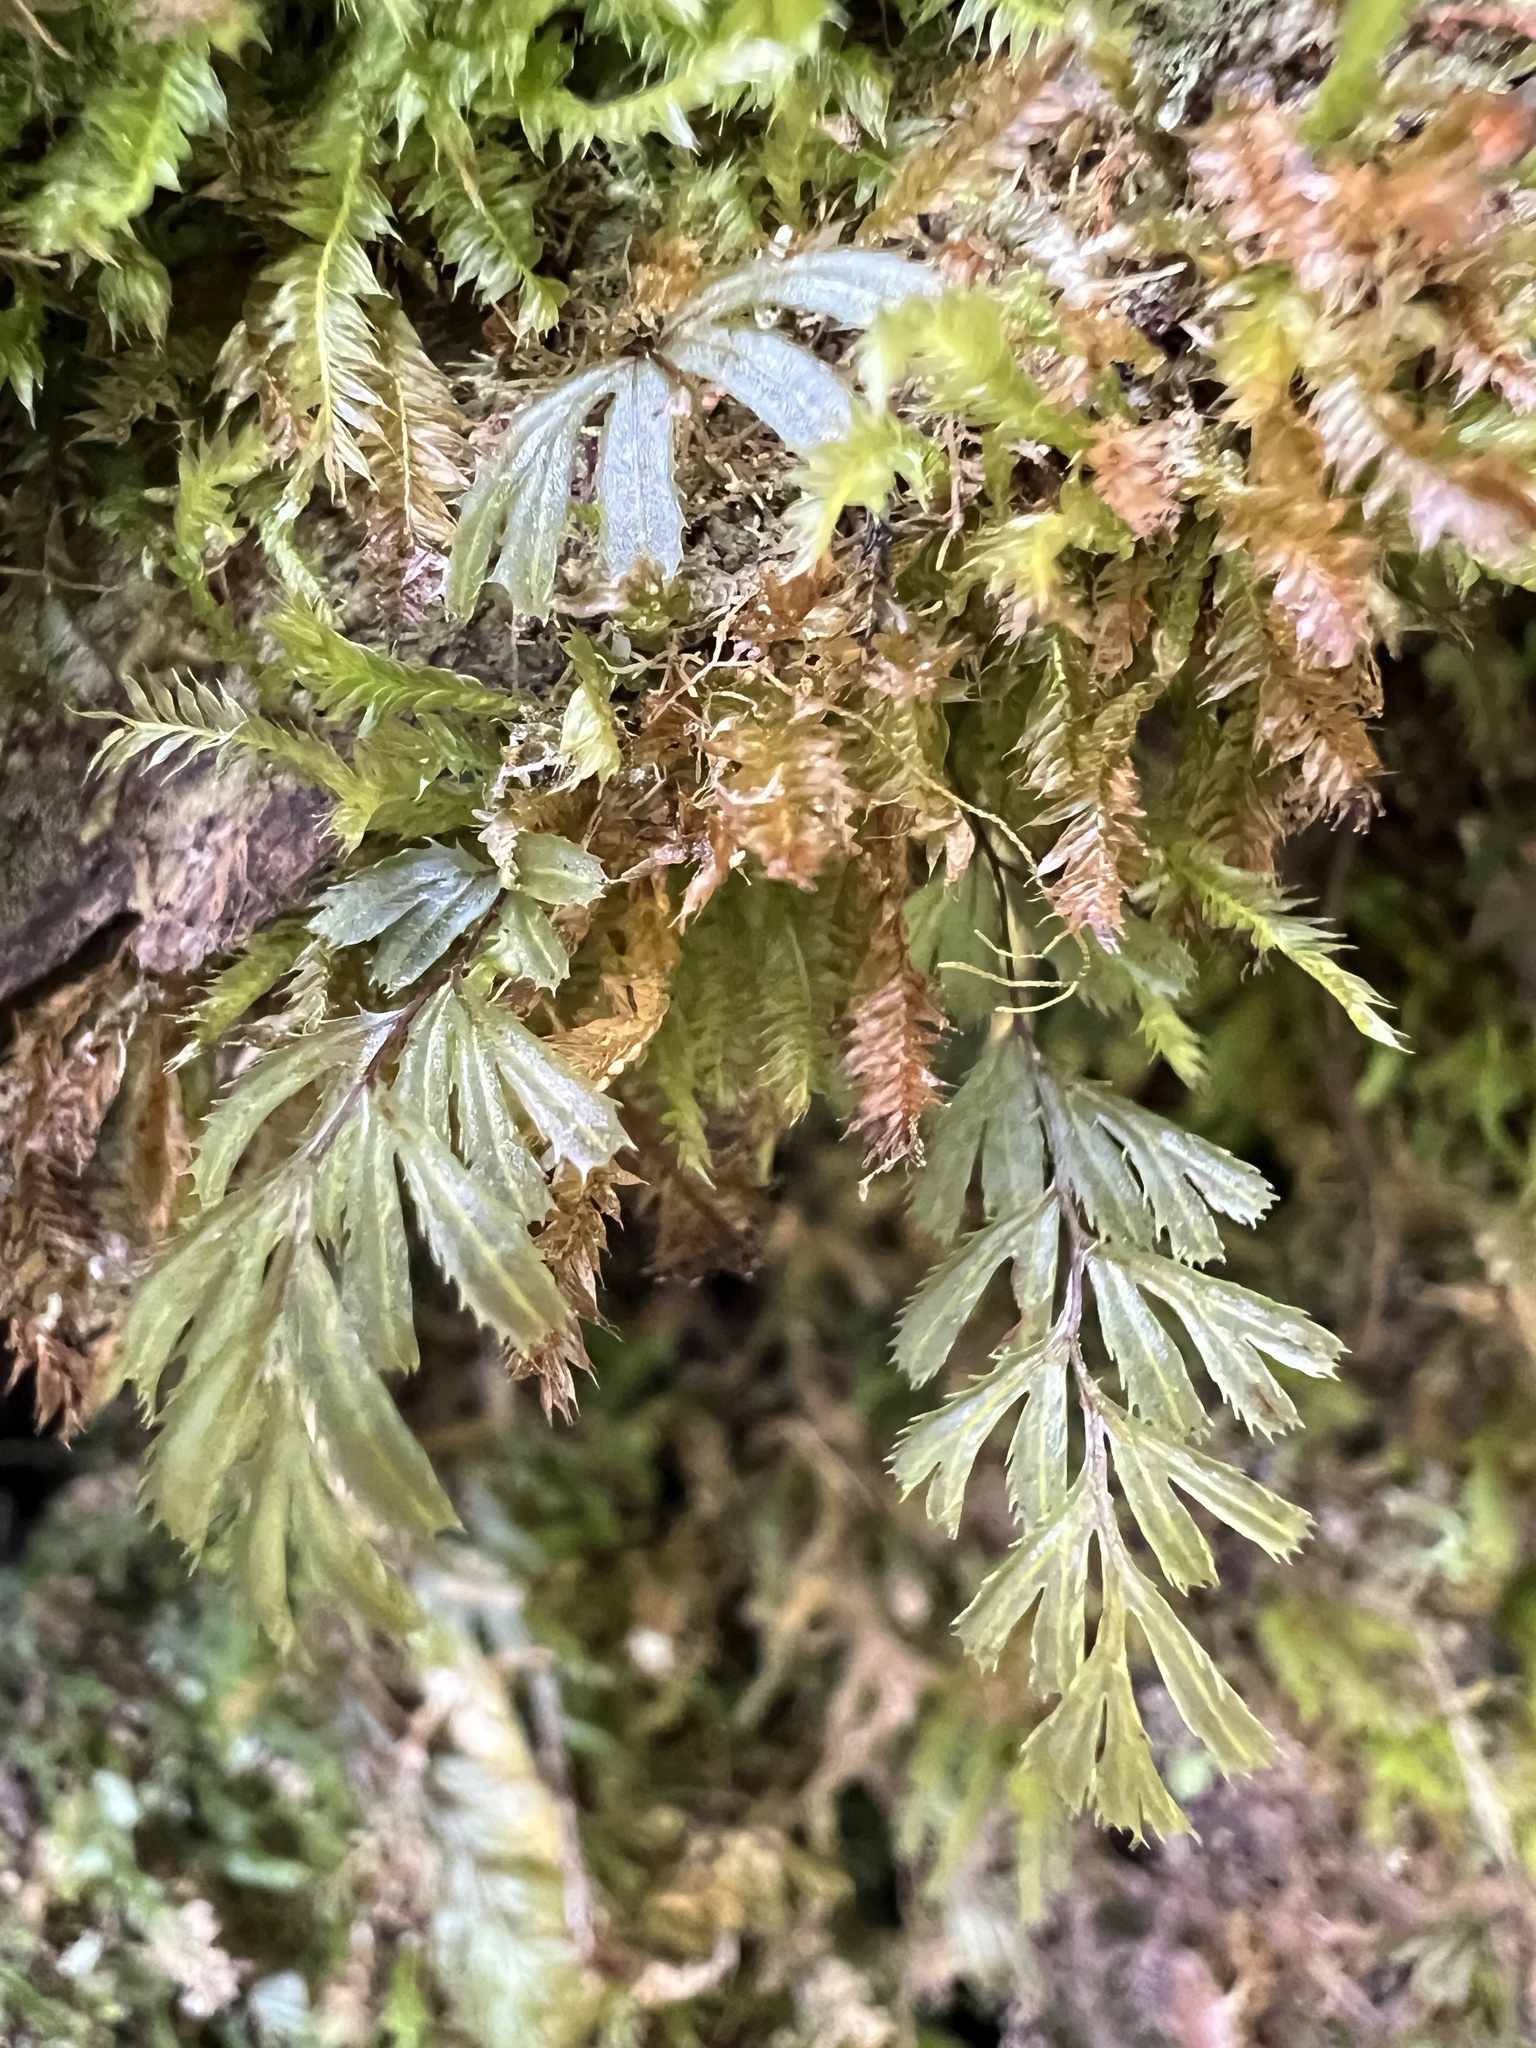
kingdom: Plantae
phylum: Tracheophyta
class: Polypodiopsida
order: Hymenophyllales
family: Hymenophyllaceae
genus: Hymenophyllum
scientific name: Hymenophyllum revolutum
